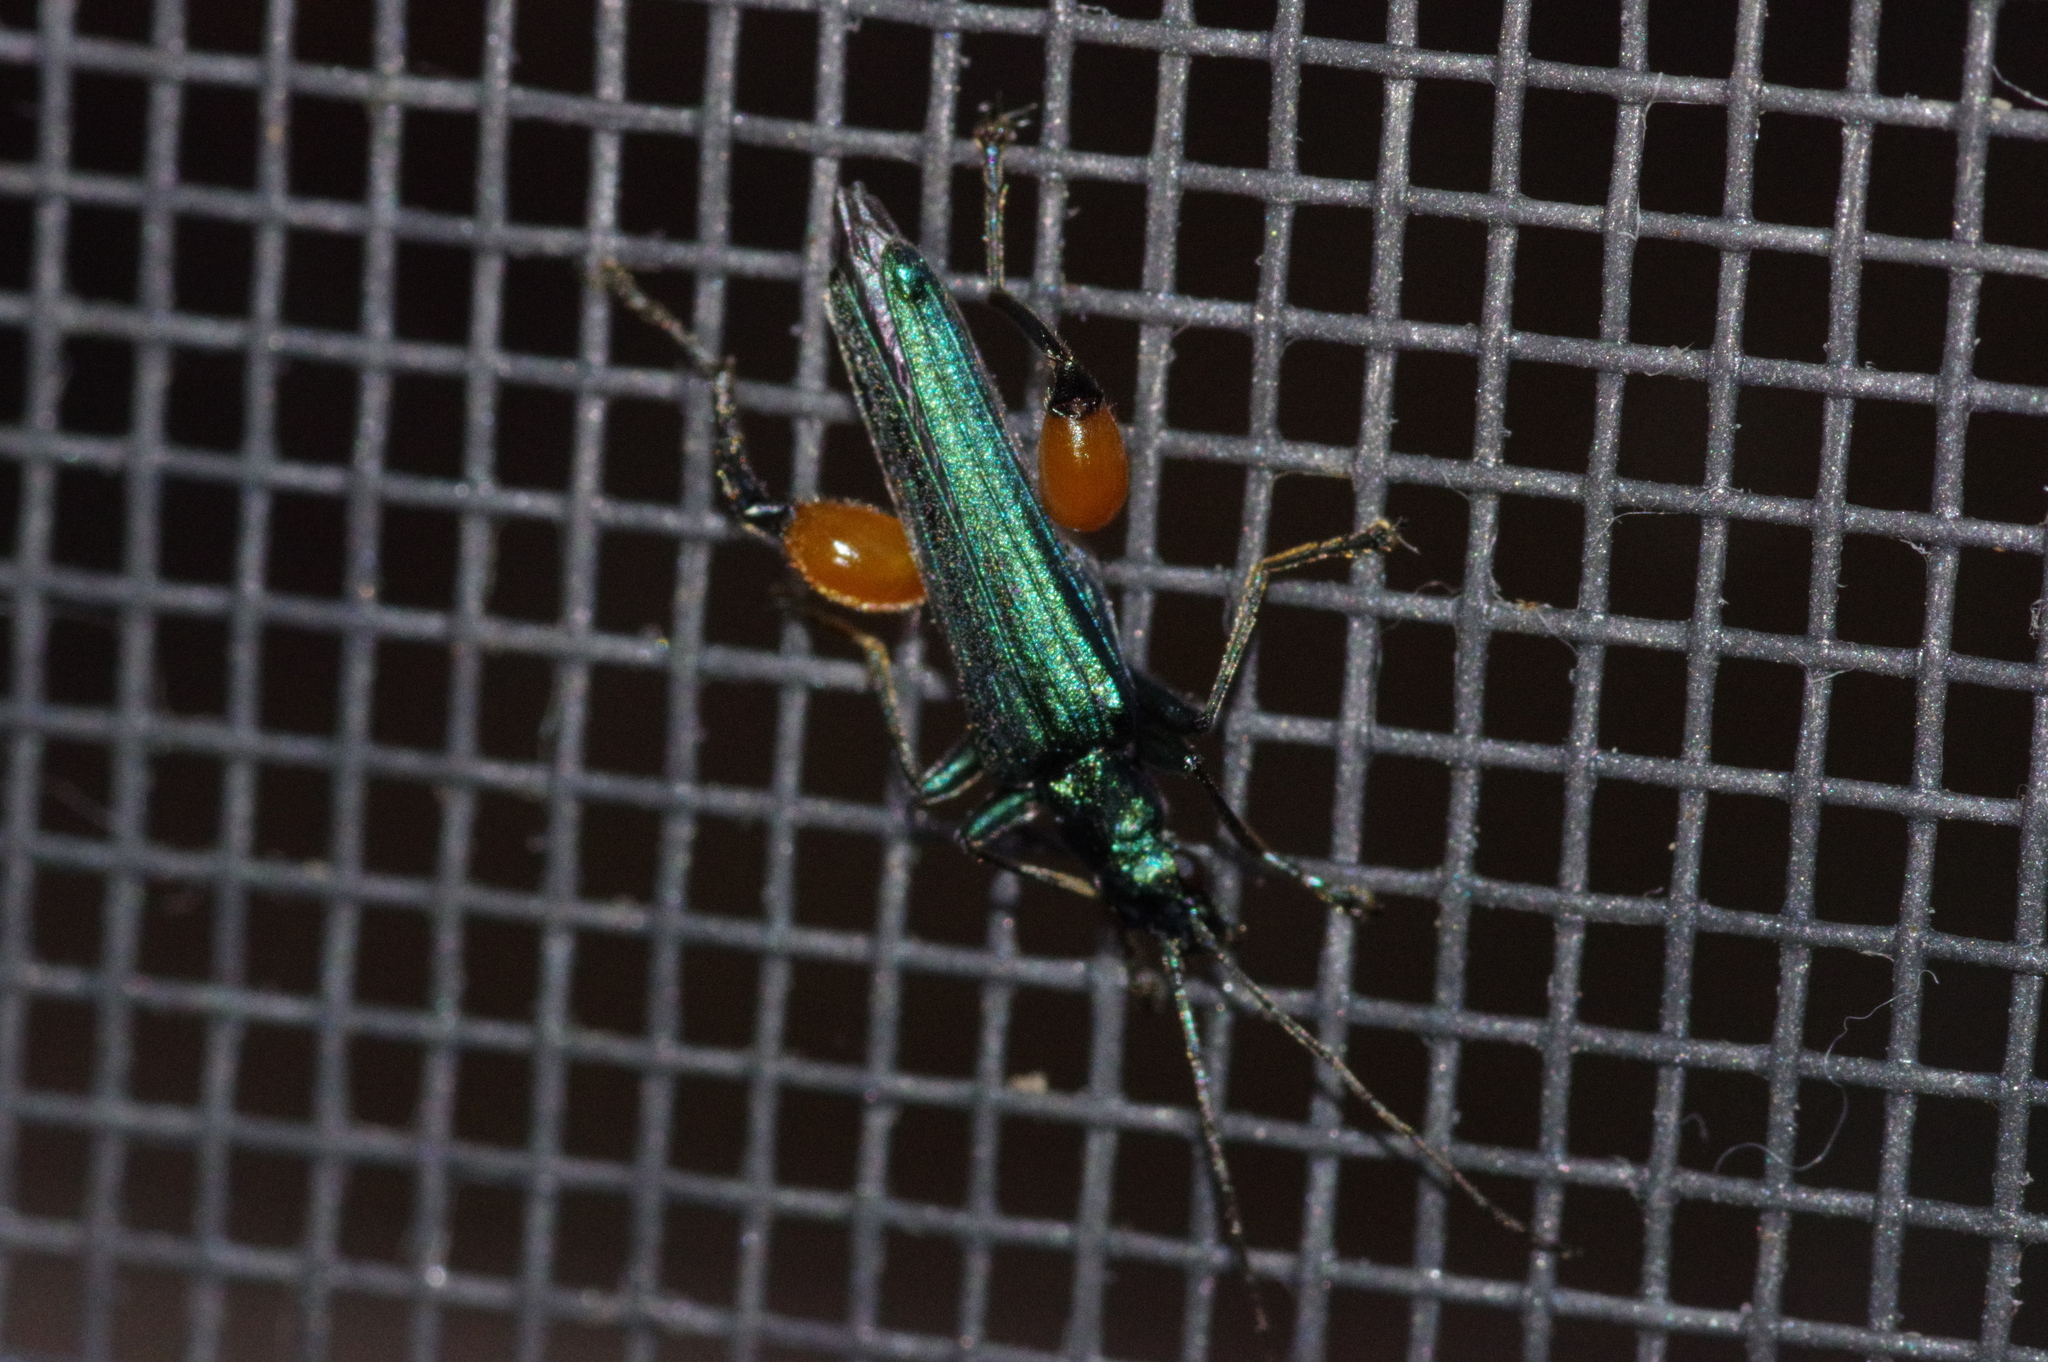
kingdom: Animalia
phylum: Arthropoda
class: Insecta
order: Coleoptera
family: Oedemeridae
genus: Oedemera
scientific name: Oedemera
